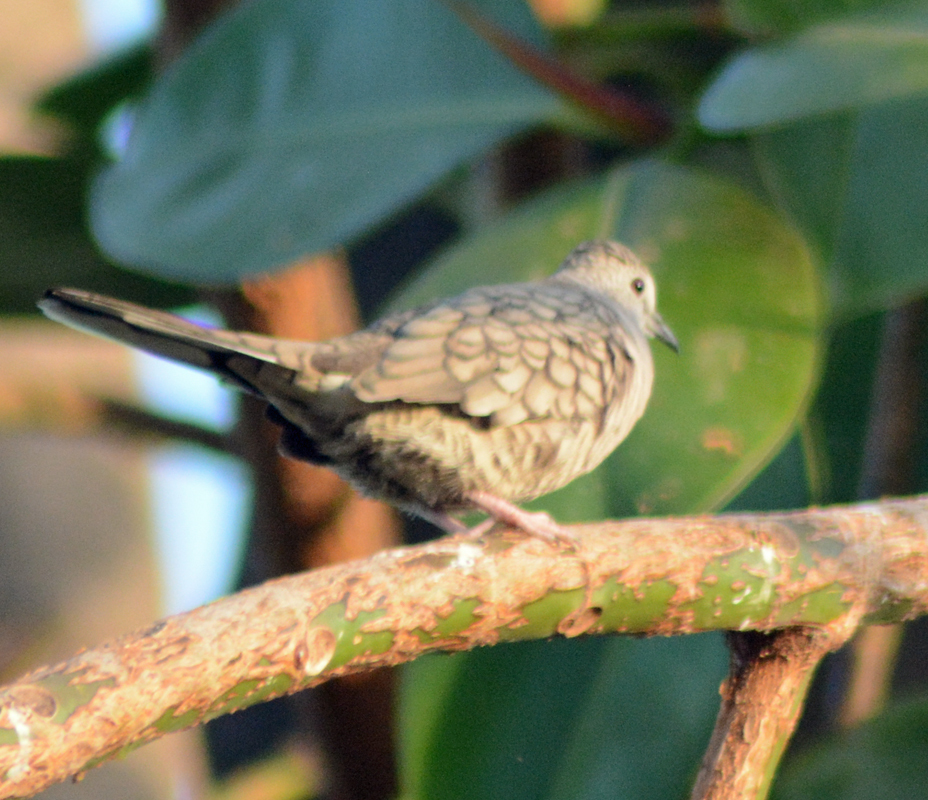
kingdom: Animalia
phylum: Chordata
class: Aves
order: Columbiformes
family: Columbidae
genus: Columbina
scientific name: Columbina inca
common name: Inca dove
